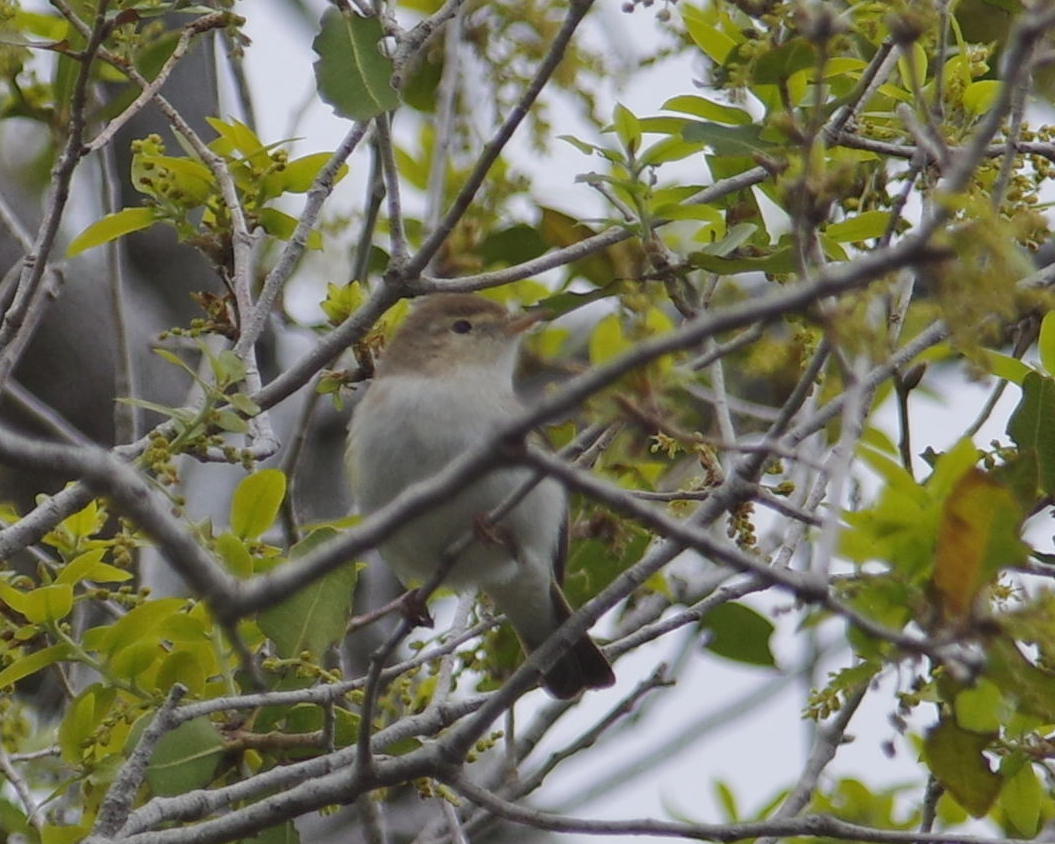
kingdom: Animalia
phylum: Chordata
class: Aves
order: Passeriformes
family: Phylloscopidae
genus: Phylloscopus
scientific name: Phylloscopus trochilus
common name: Willow warbler
